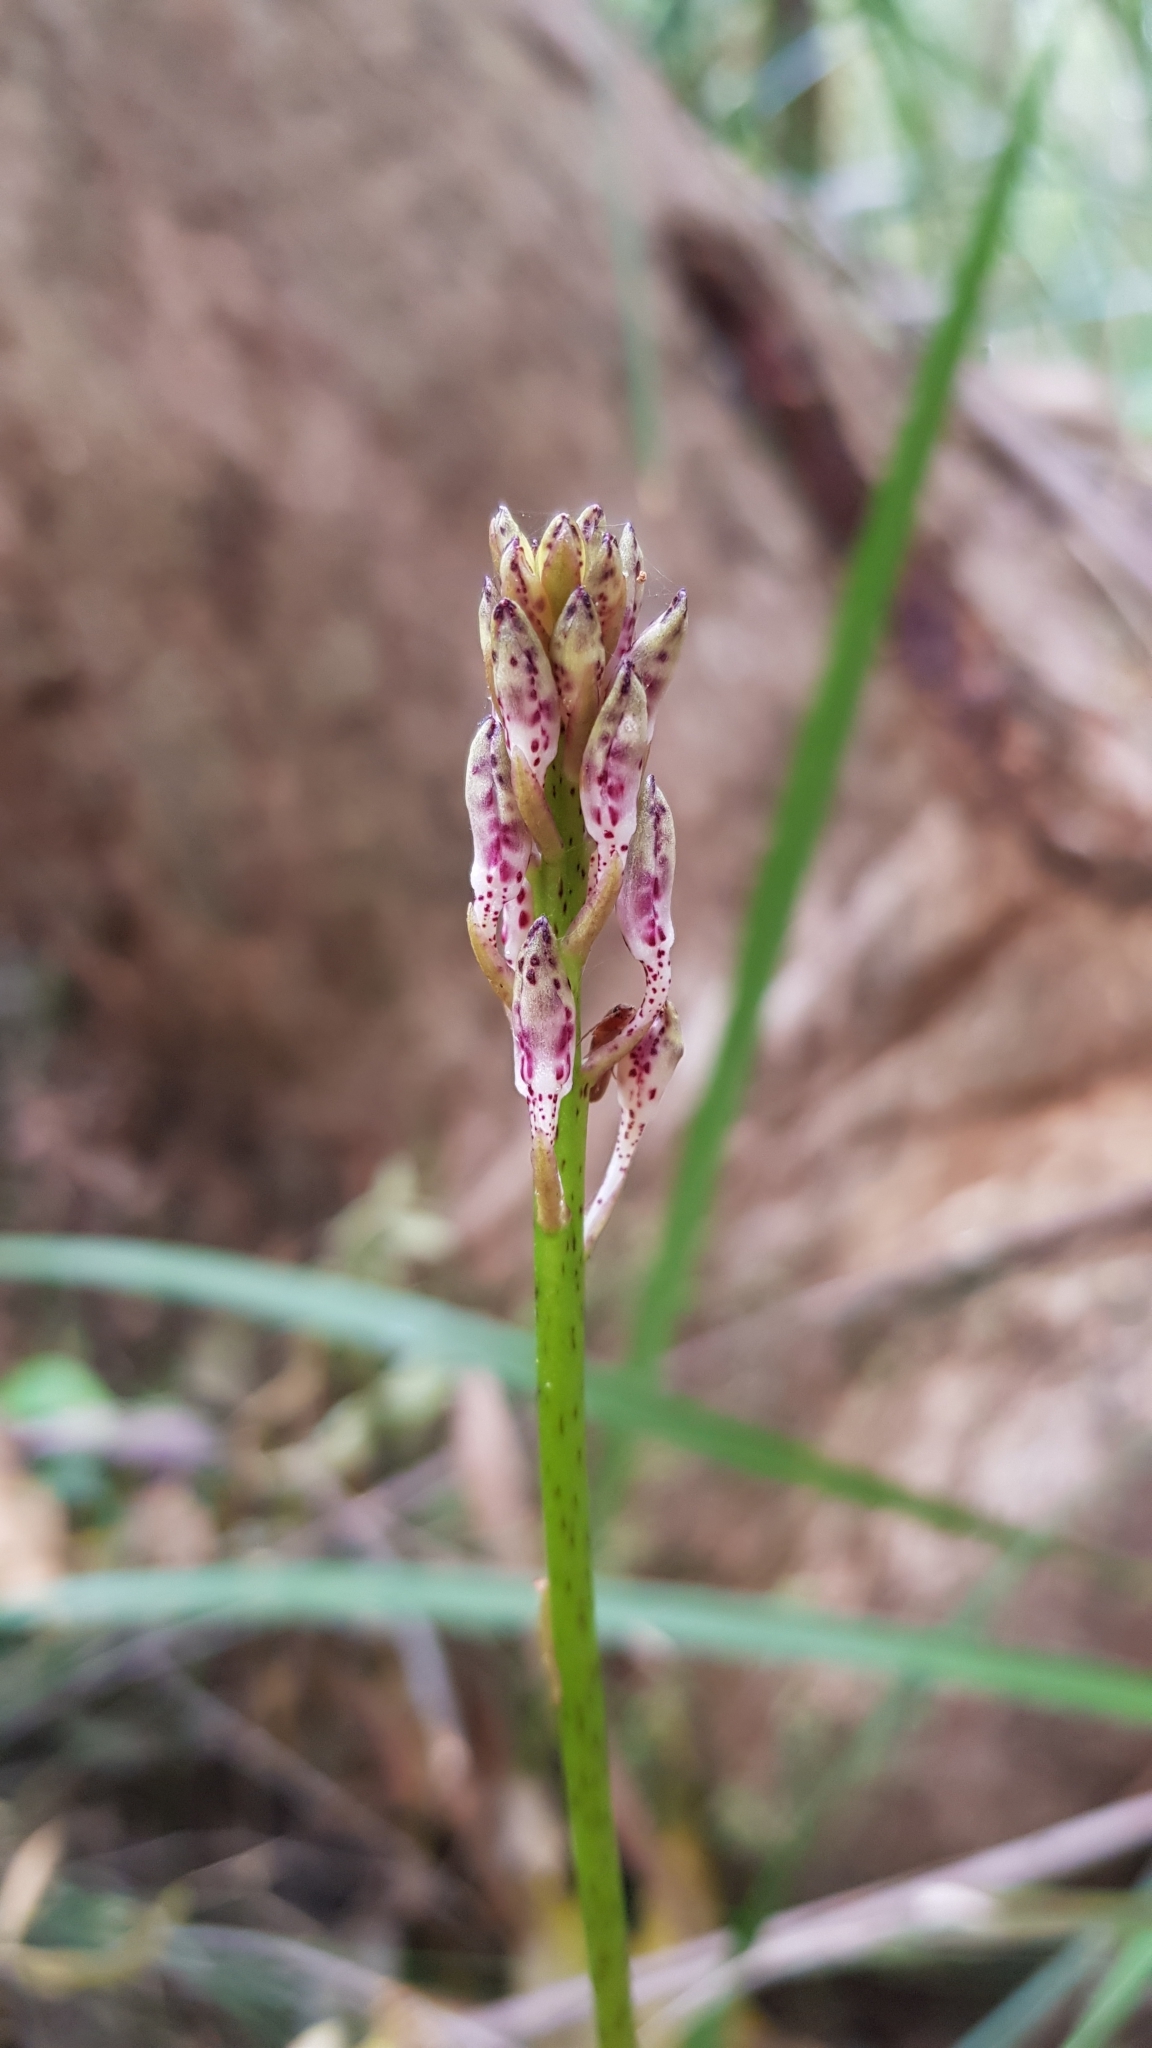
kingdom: Plantae
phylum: Tracheophyta
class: Liliopsida
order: Asparagales
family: Orchidaceae
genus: Dipodium
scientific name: Dipodium variegatum
